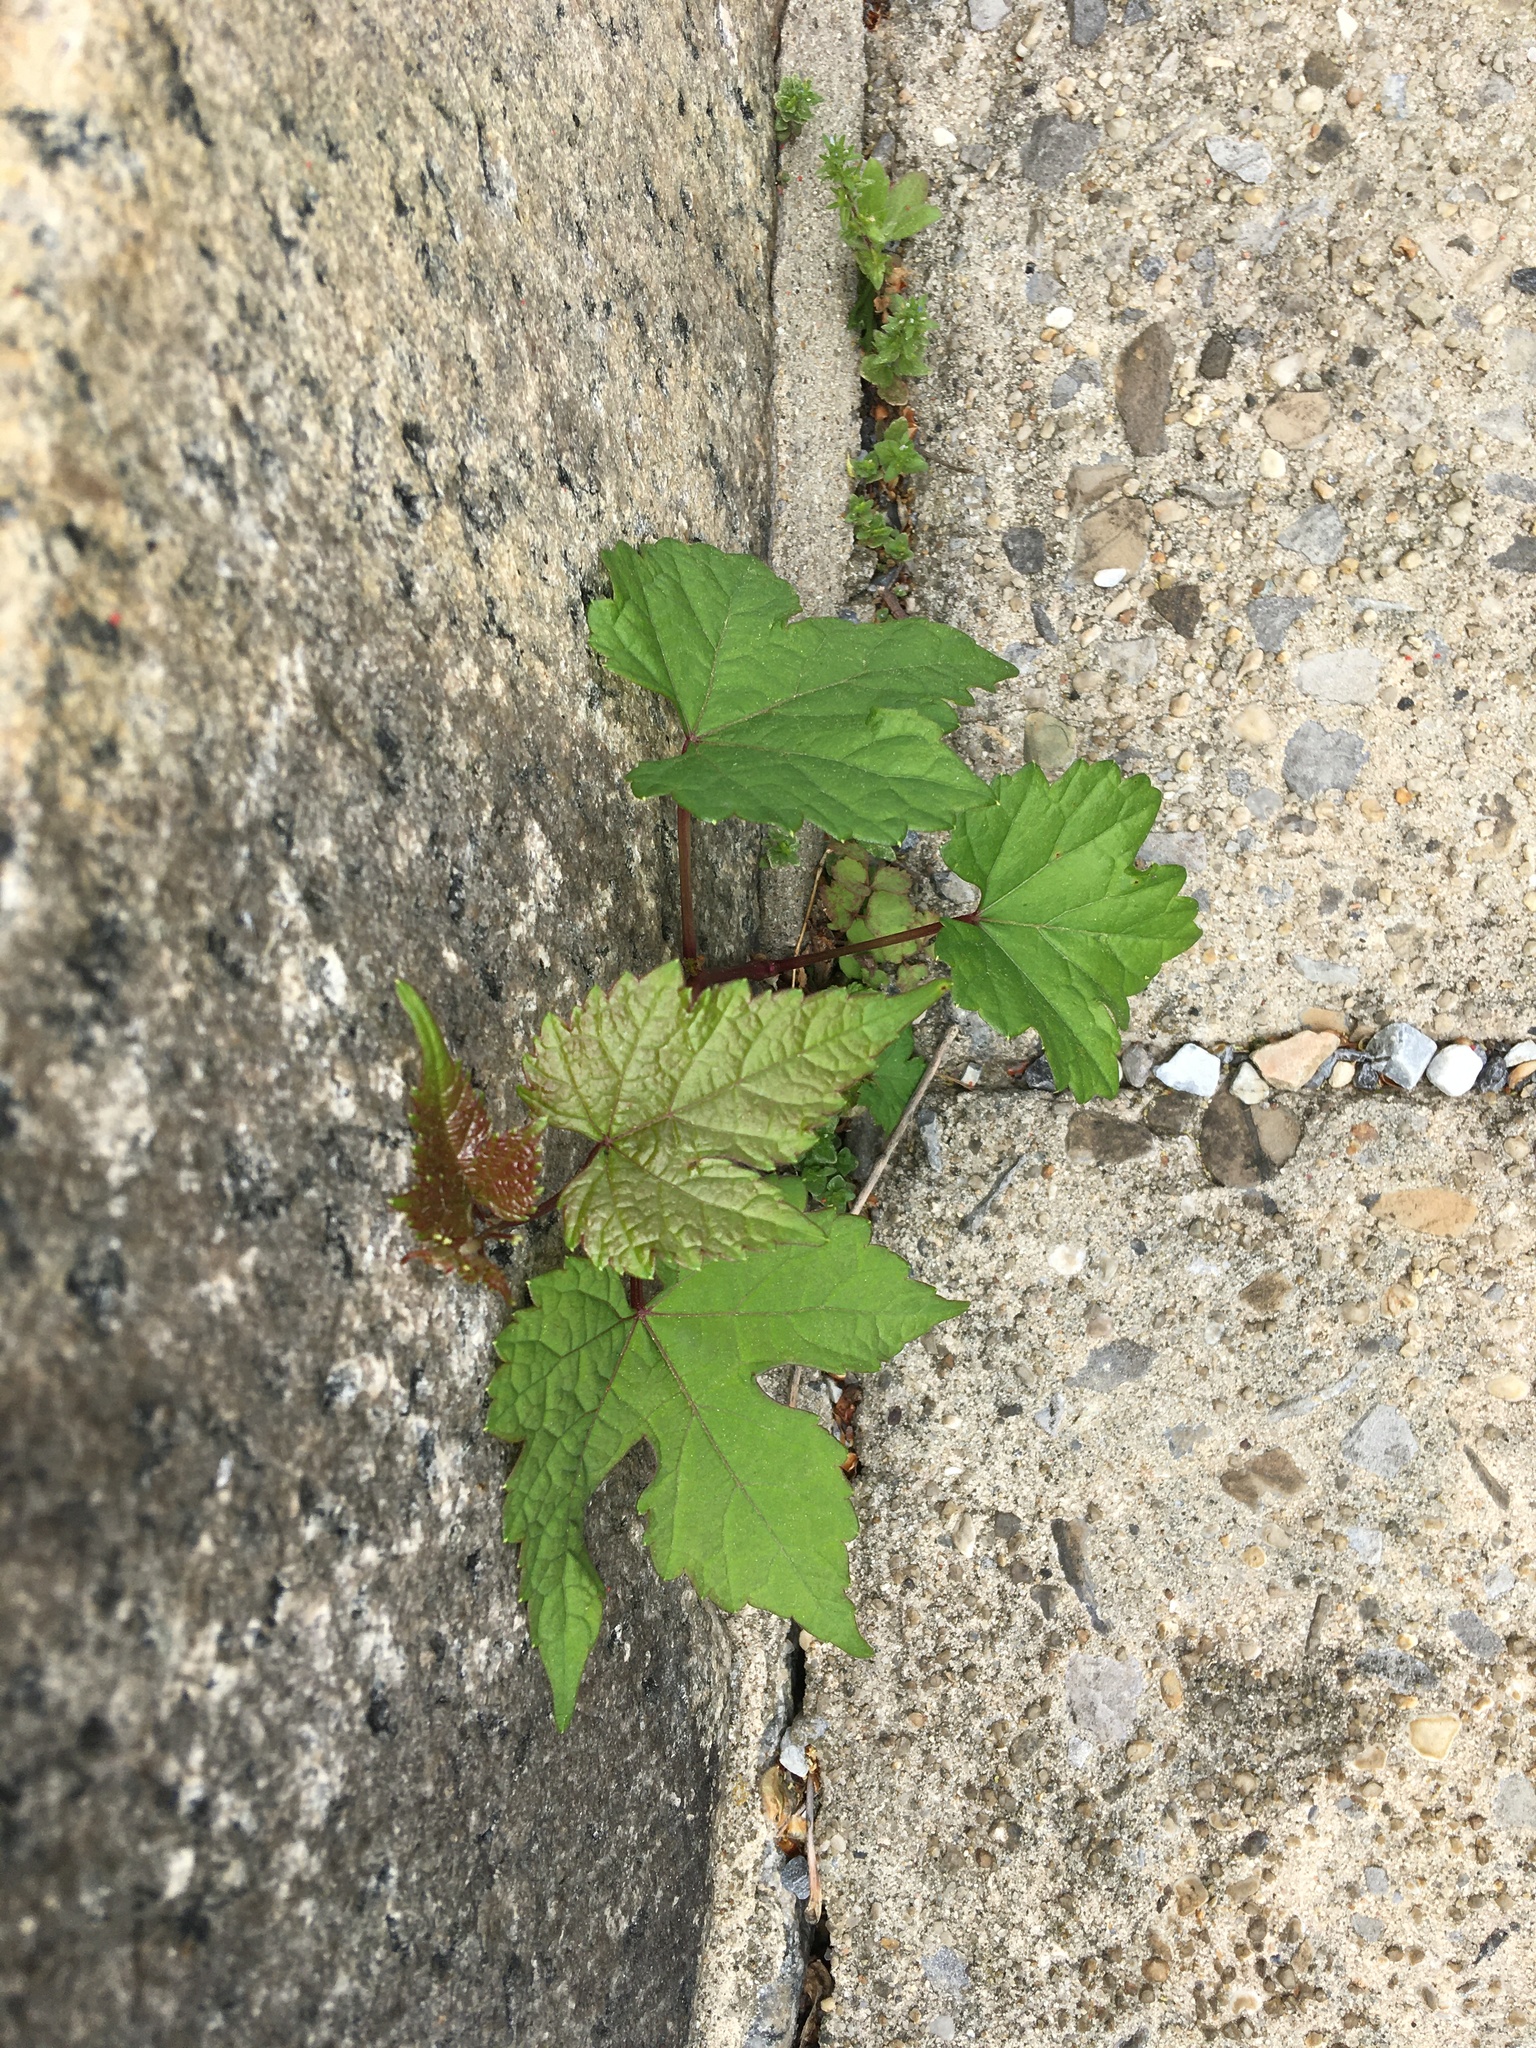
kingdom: Plantae
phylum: Tracheophyta
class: Magnoliopsida
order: Vitales
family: Vitaceae
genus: Ampelopsis
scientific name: Ampelopsis glandulosa
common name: Amur peppervine
